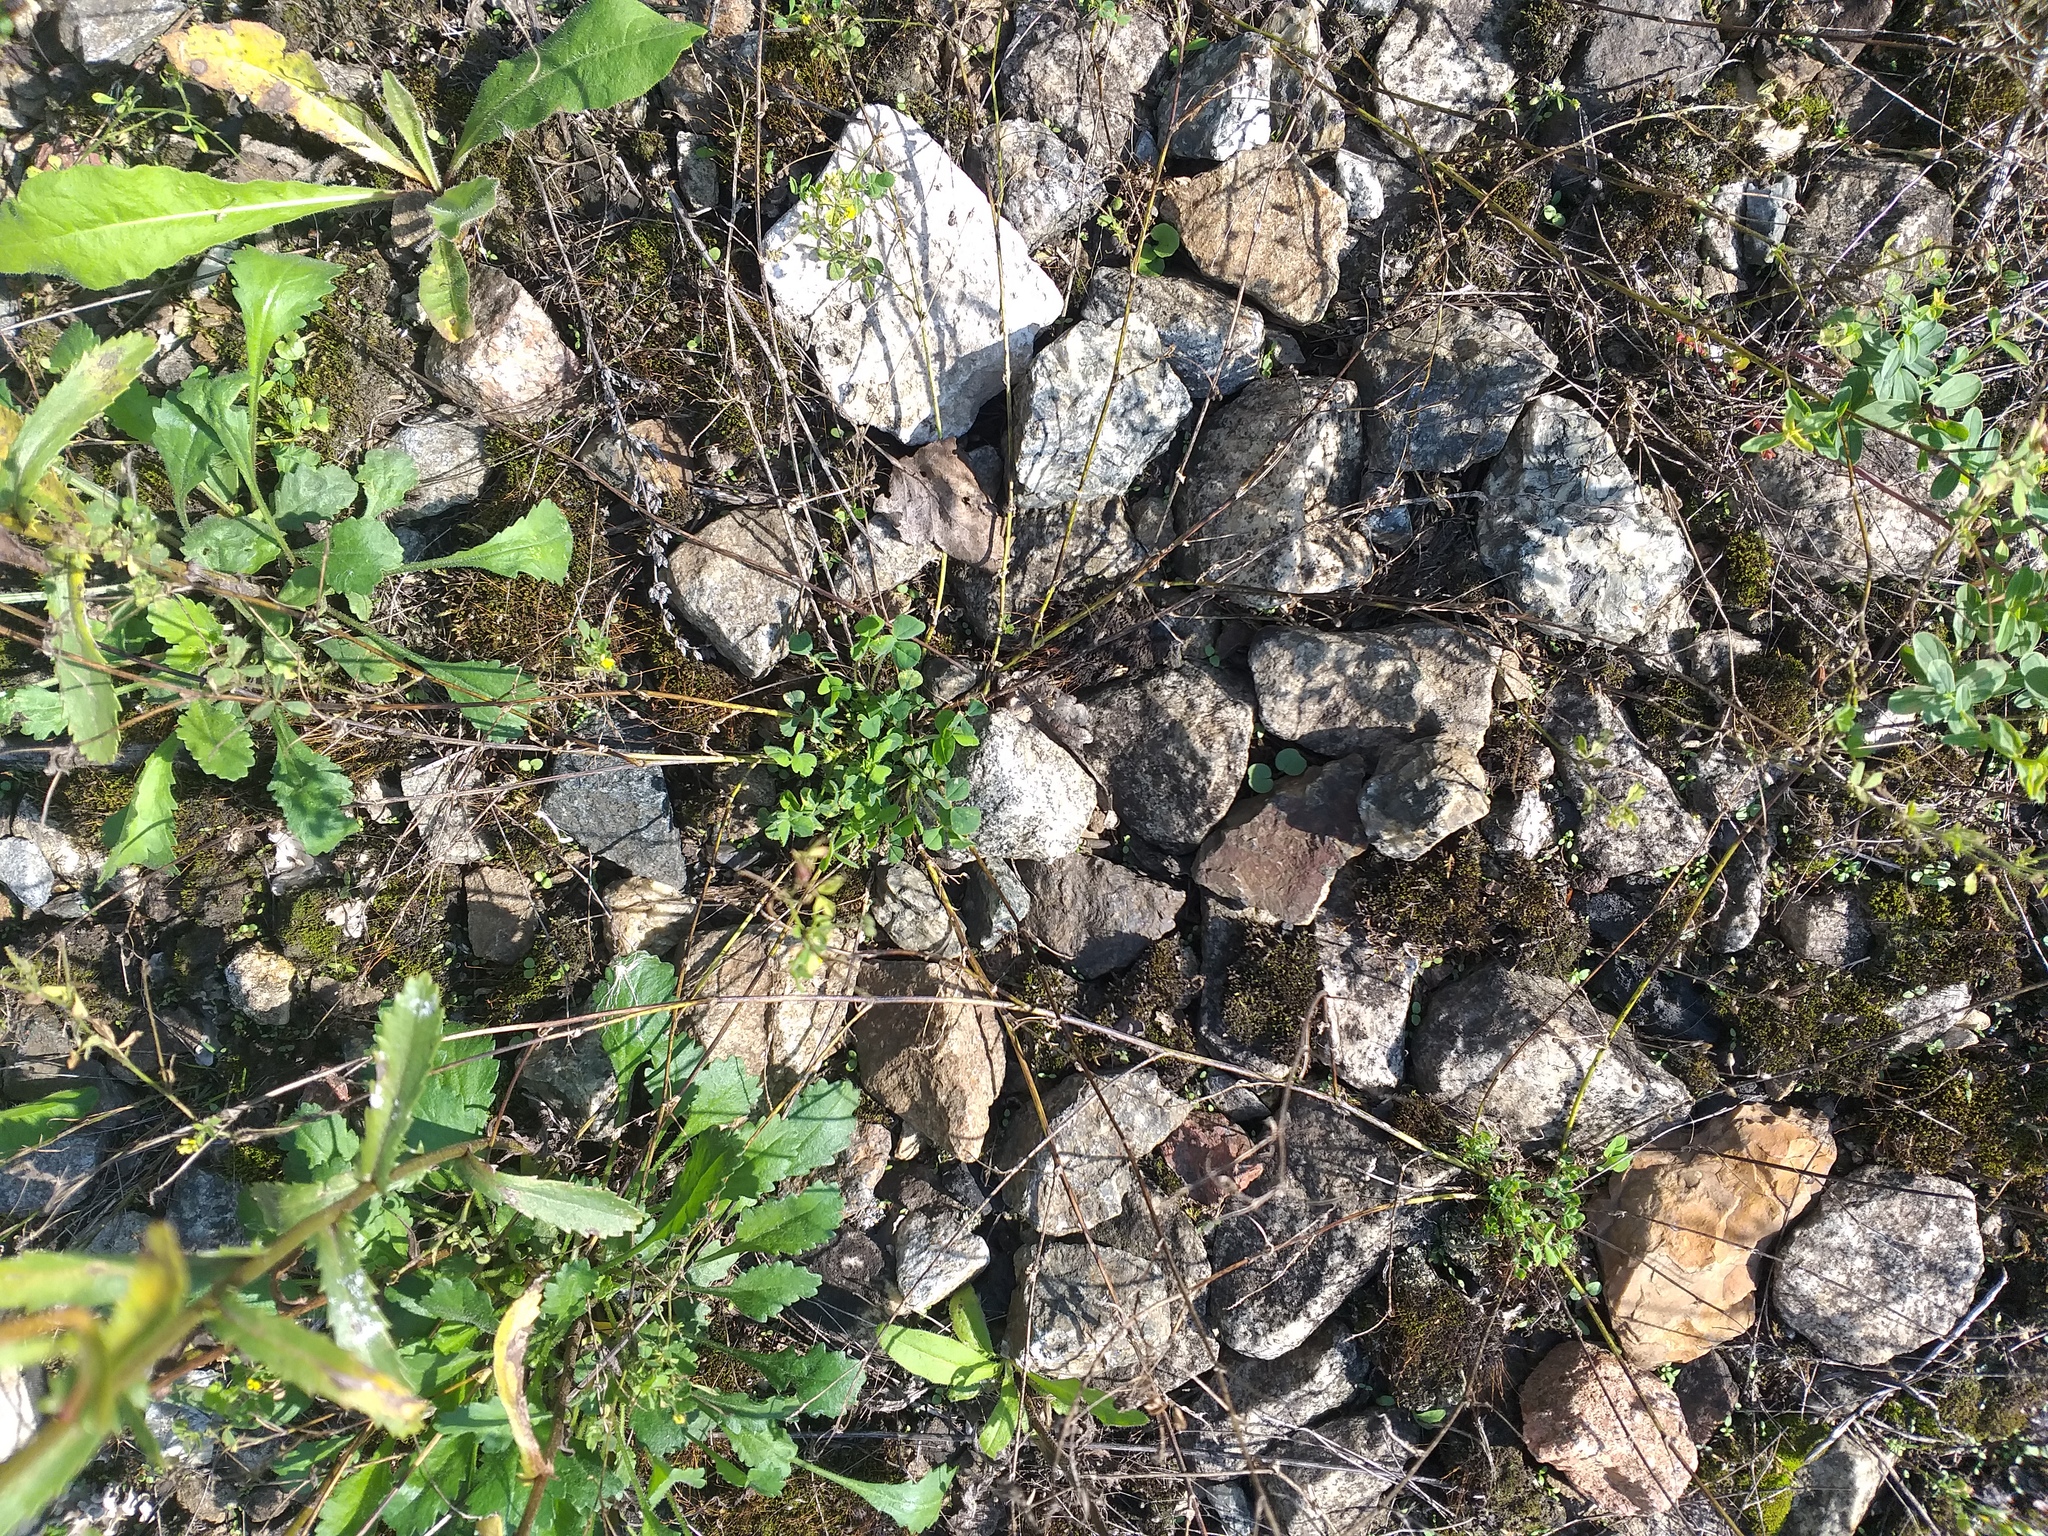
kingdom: Plantae
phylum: Tracheophyta
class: Magnoliopsida
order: Fabales
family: Fabaceae
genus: Medicago
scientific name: Medicago lupulina
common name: Black medick
